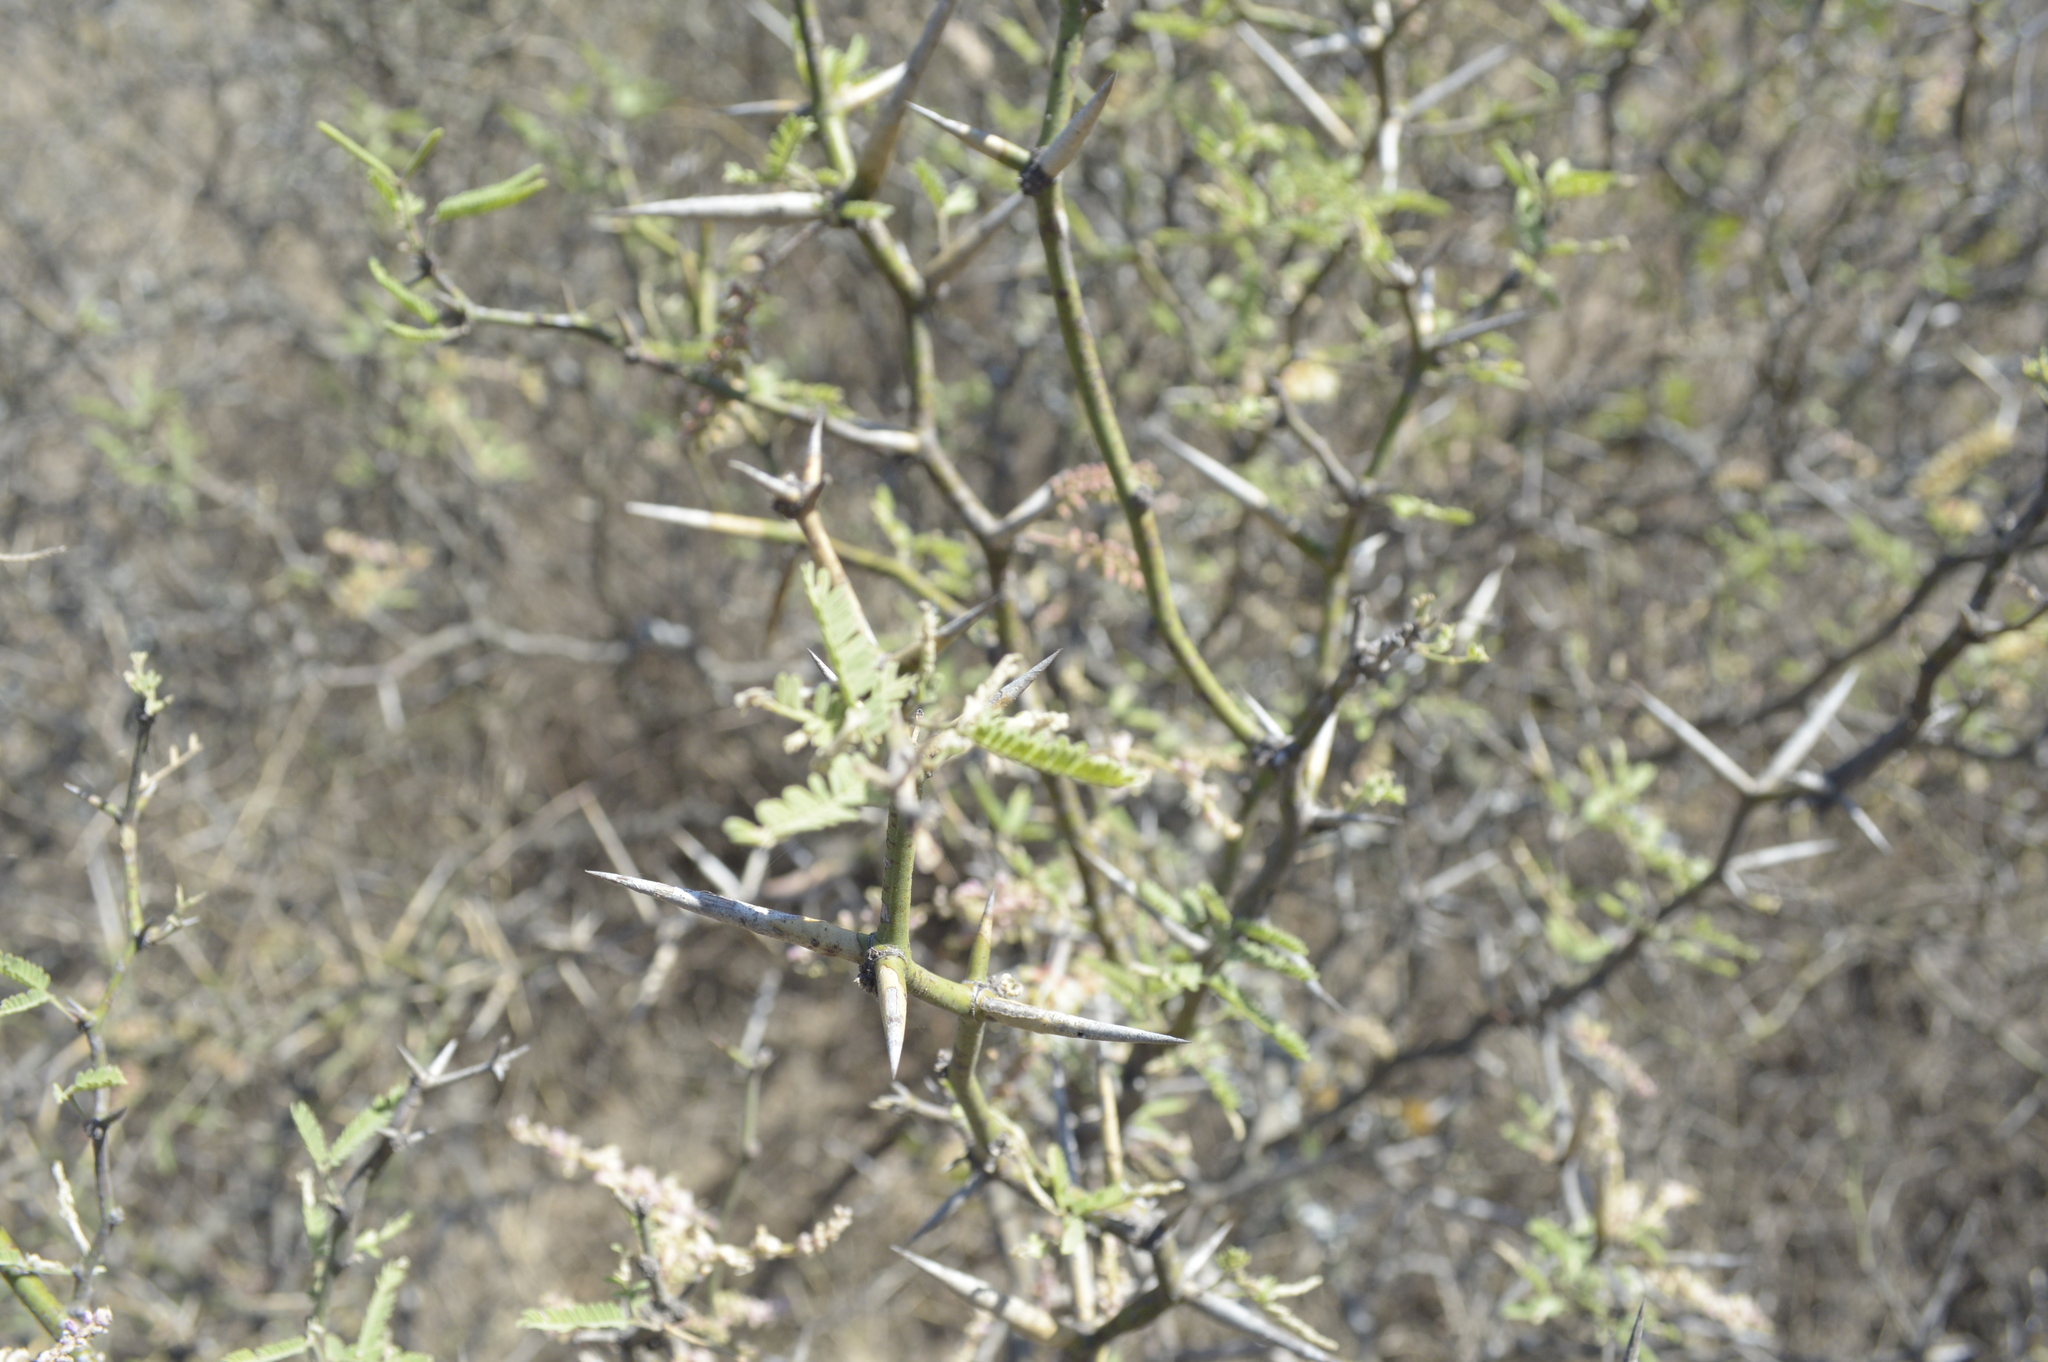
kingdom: Plantae
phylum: Tracheophyta
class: Magnoliopsida
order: Fabales
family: Fabaceae
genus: Prosopis
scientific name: Prosopis elata
